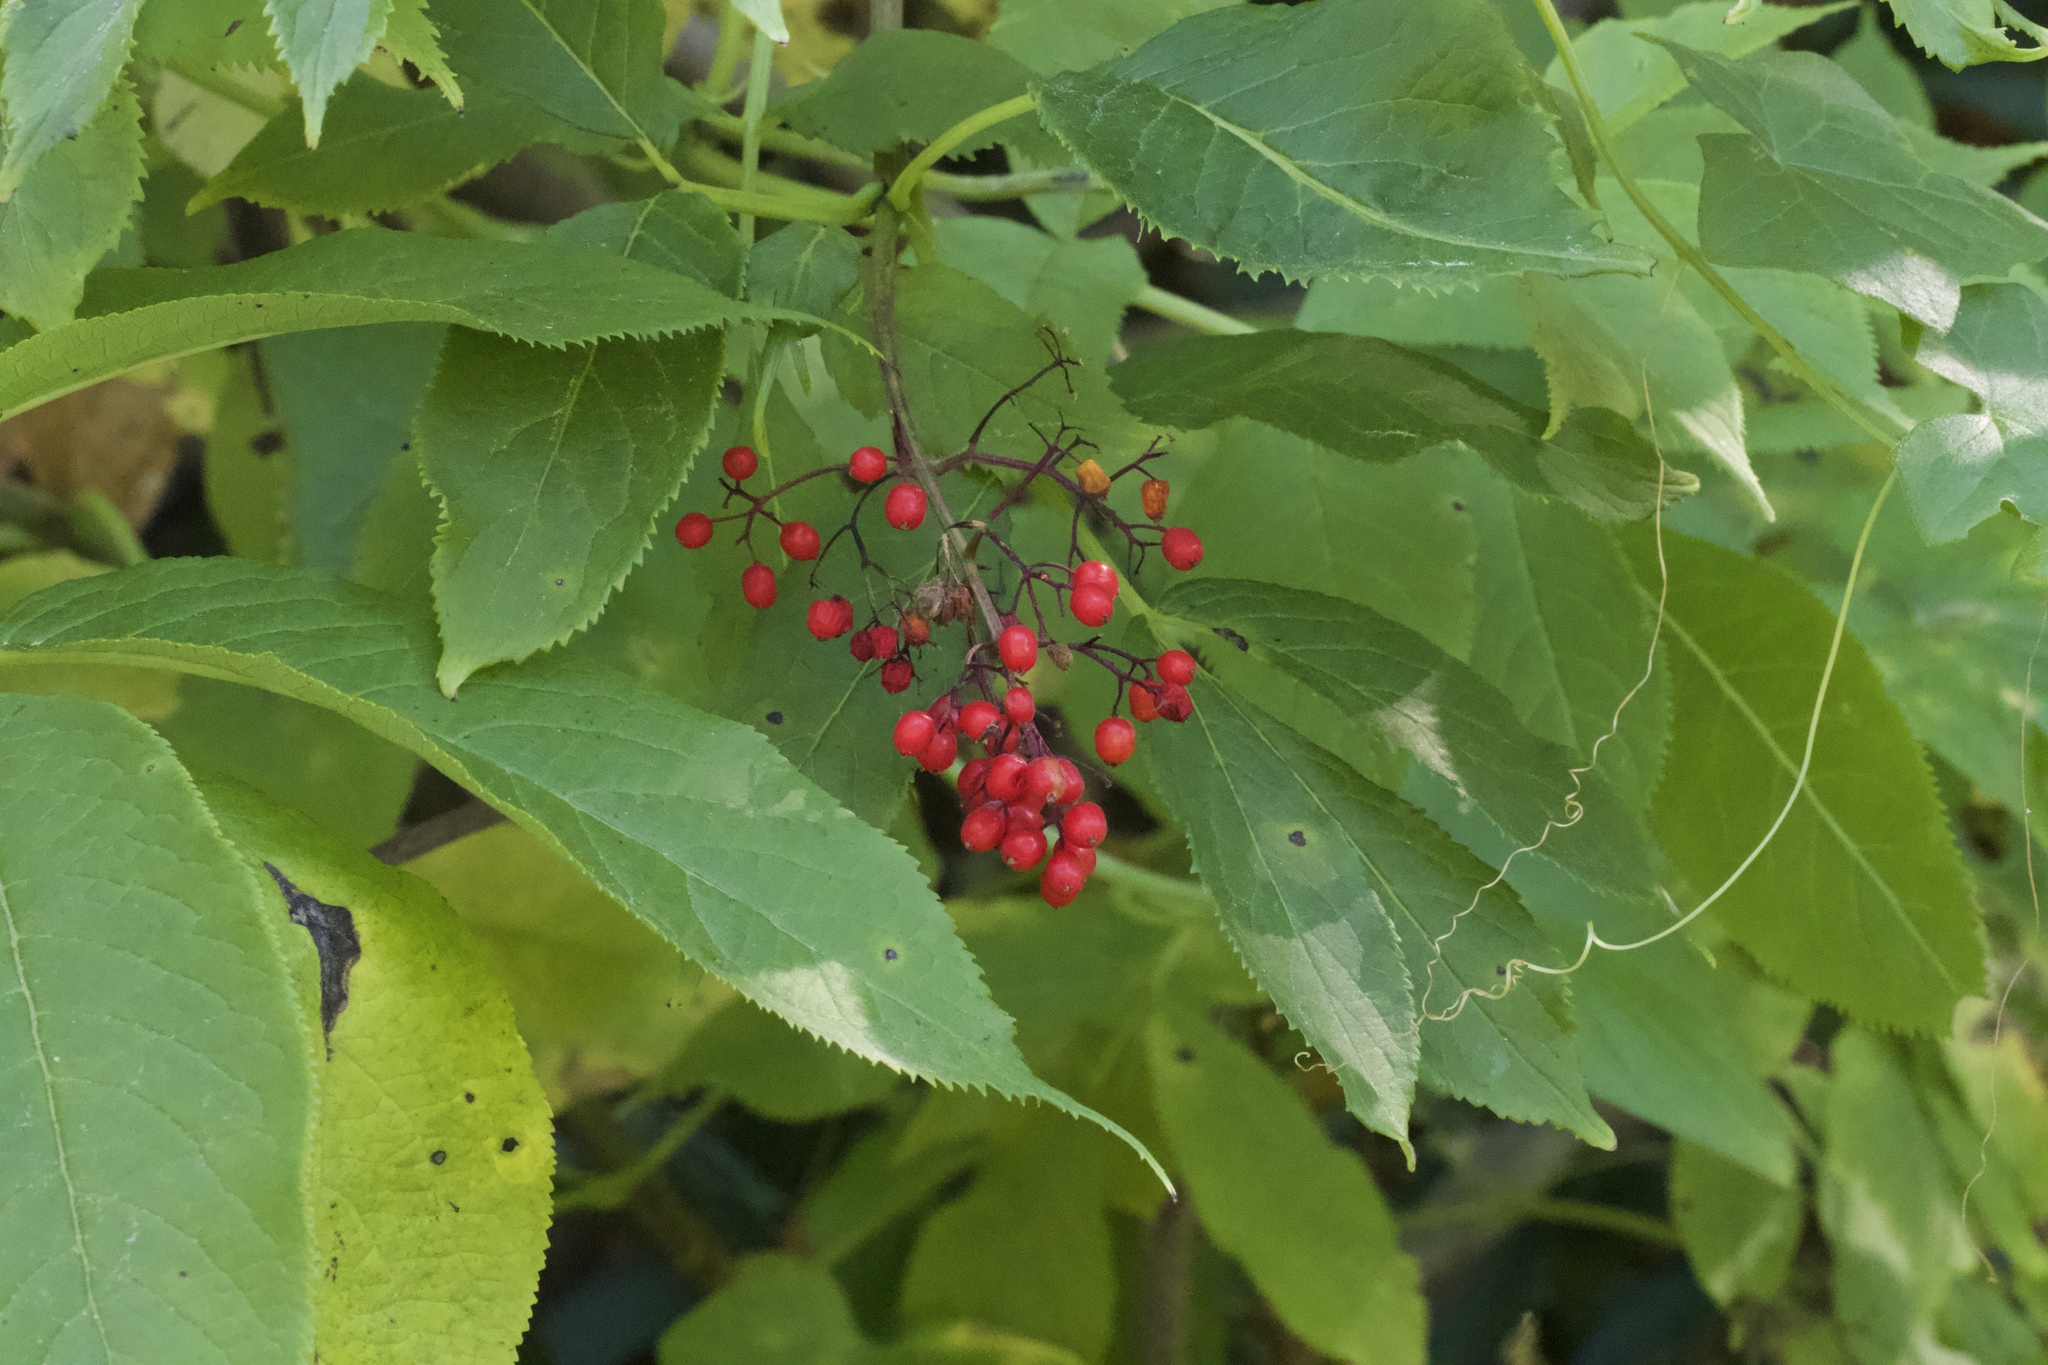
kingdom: Plantae
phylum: Tracheophyta
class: Magnoliopsida
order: Dipsacales
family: Viburnaceae
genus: Sambucus
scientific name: Sambucus racemosa
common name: Red-berried elder
